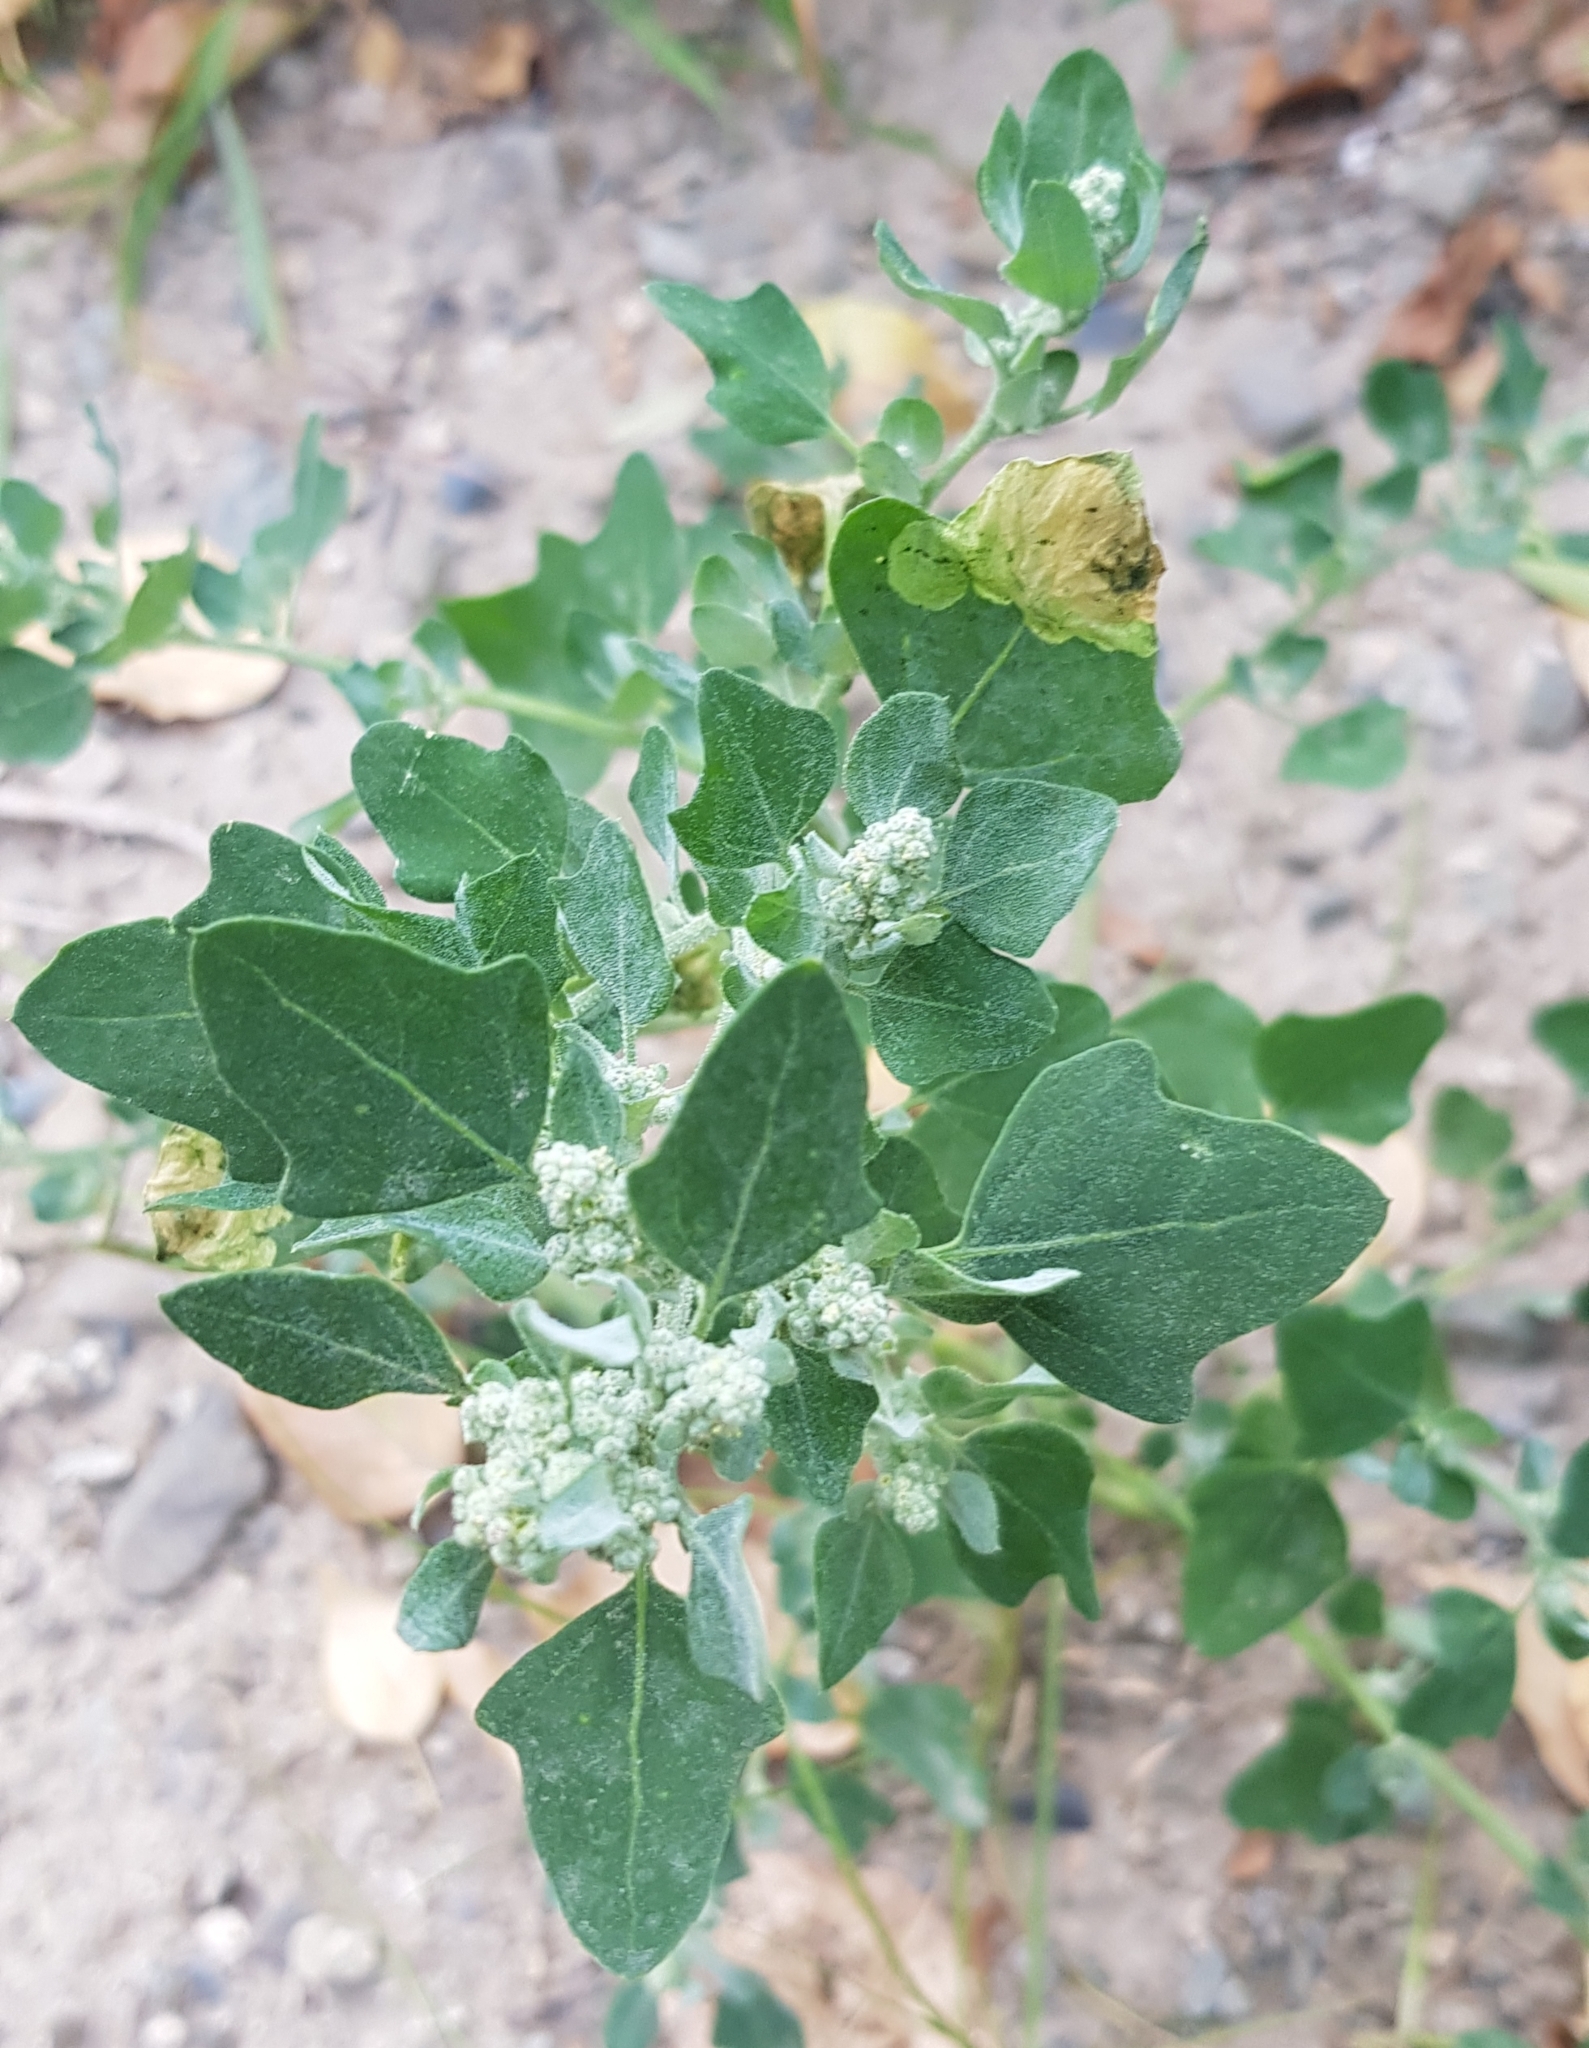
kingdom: Plantae
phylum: Tracheophyta
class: Magnoliopsida
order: Caryophyllales
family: Amaranthaceae
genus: Chenopodium
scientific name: Chenopodium karoi
